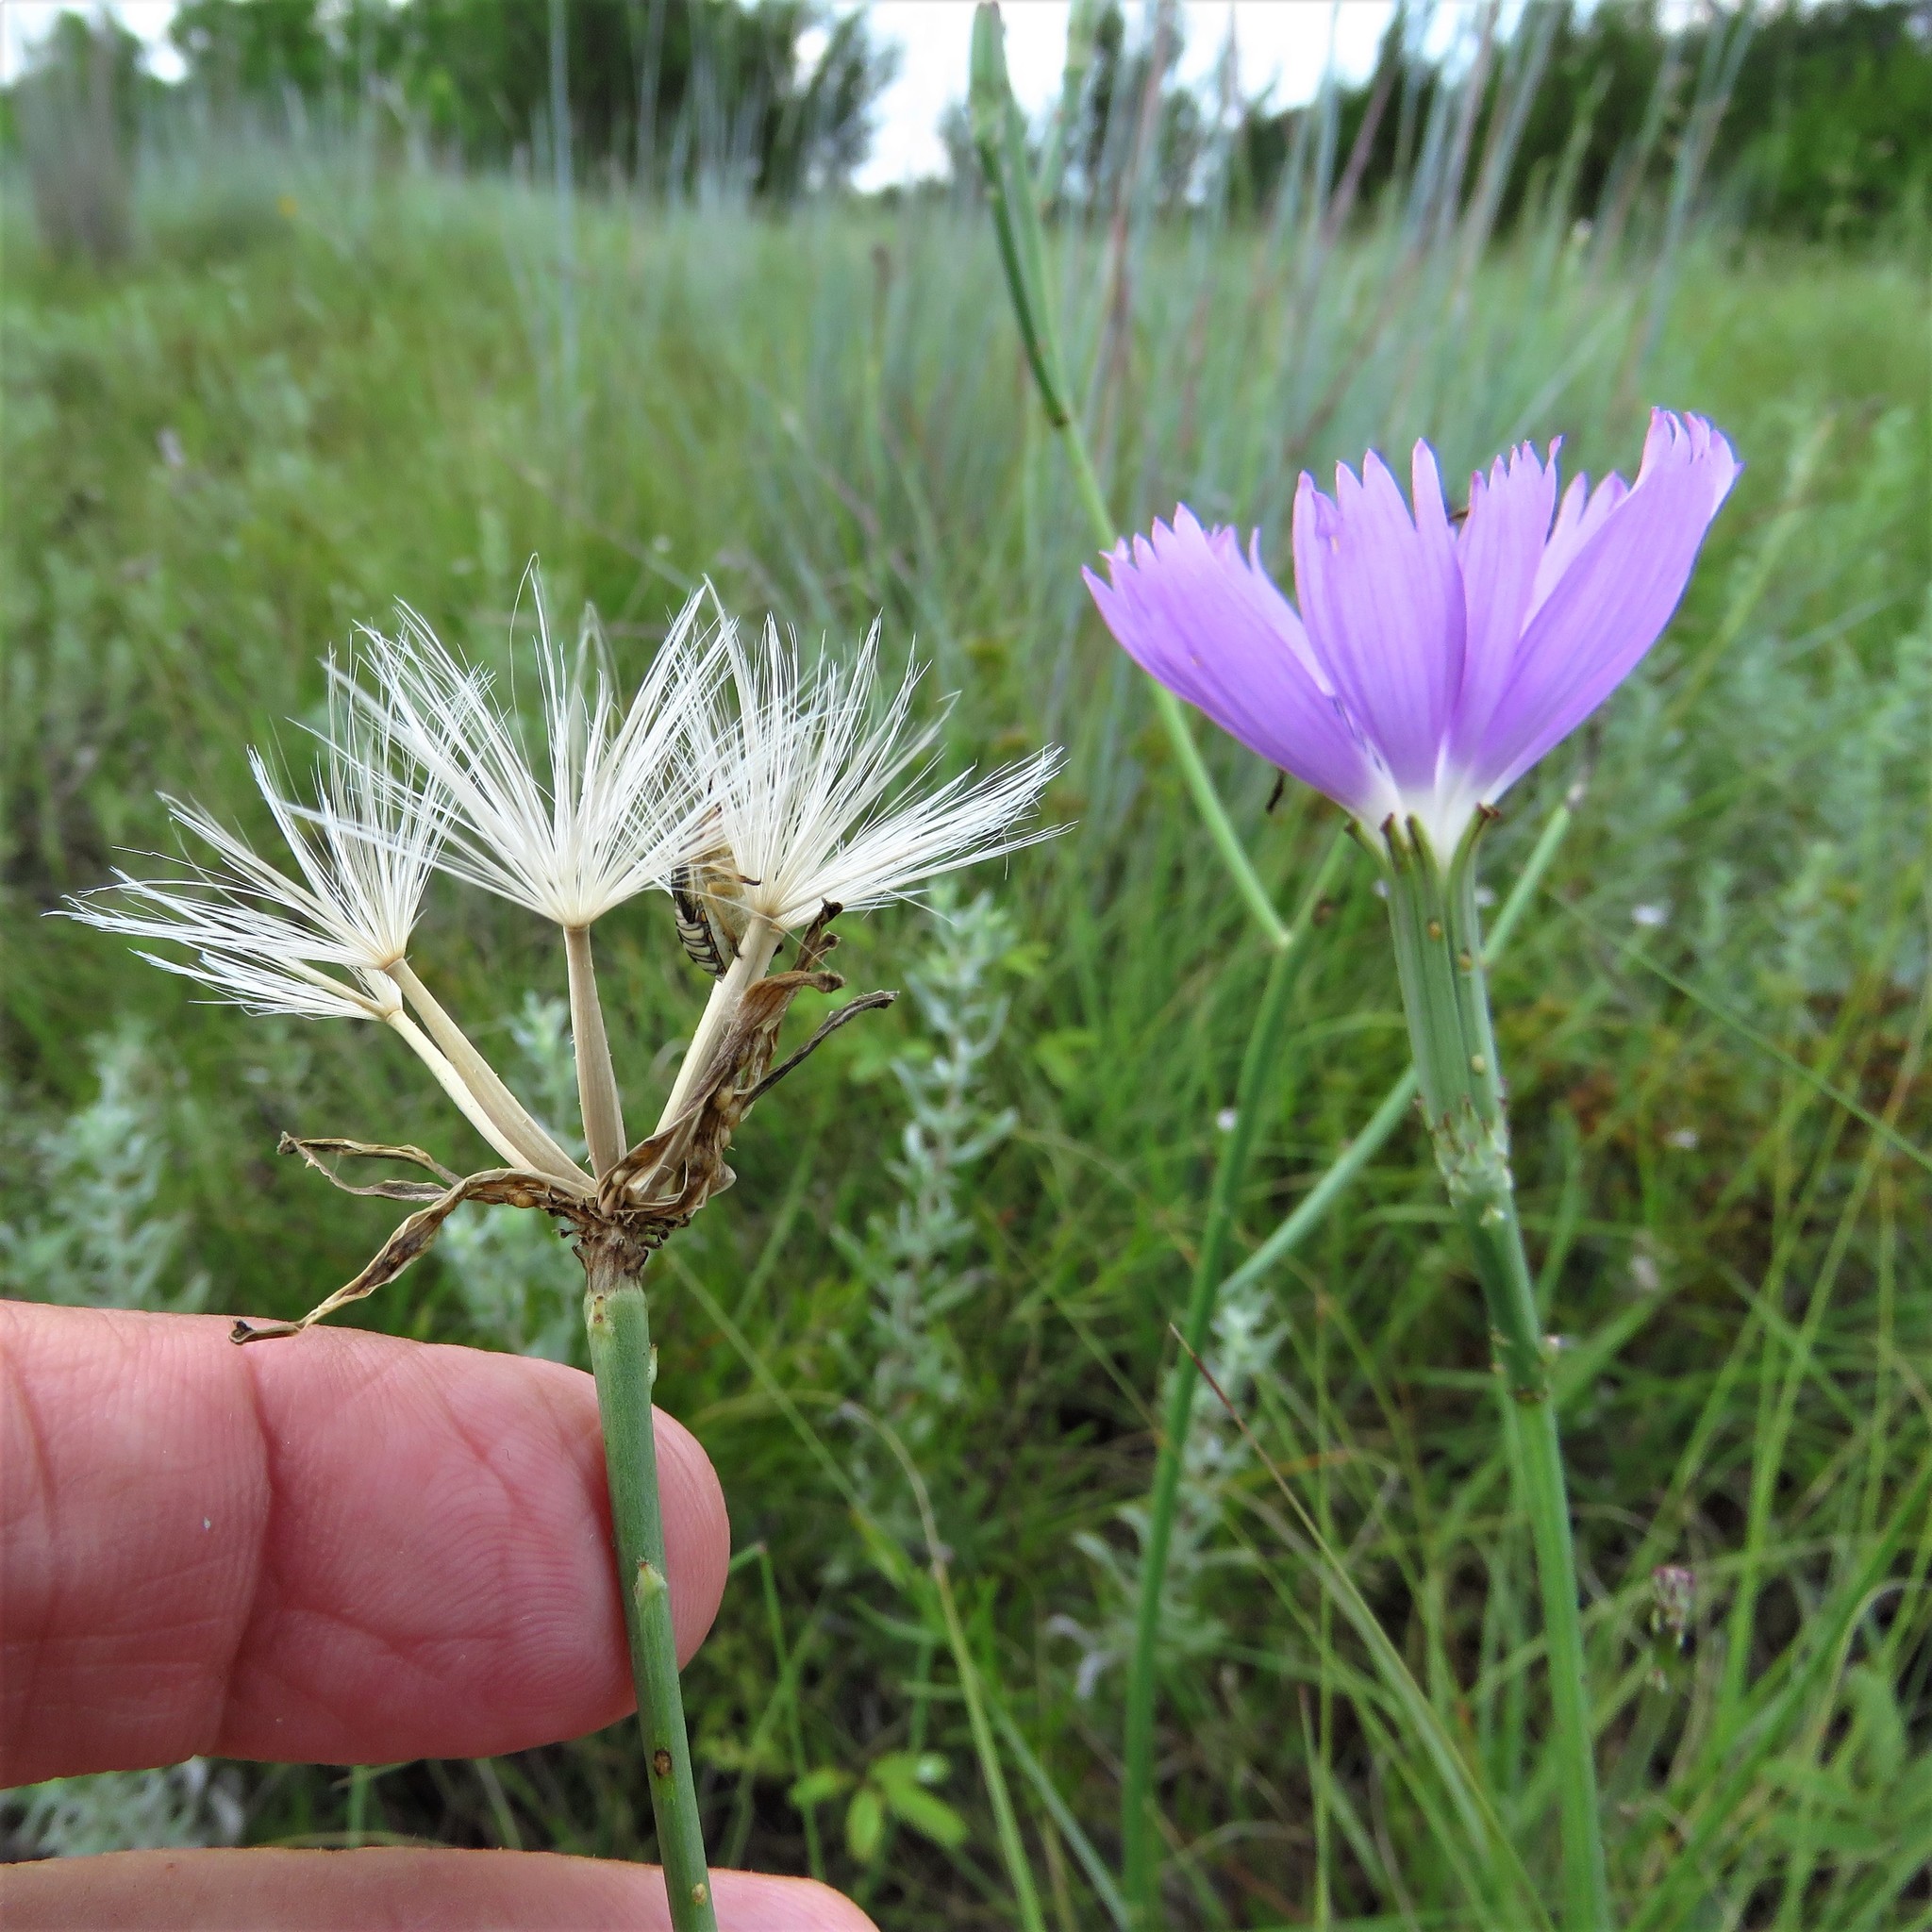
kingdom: Plantae
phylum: Tracheophyta
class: Magnoliopsida
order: Asterales
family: Asteraceae
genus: Lygodesmia
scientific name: Lygodesmia texana
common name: Texas skeleton-plant
